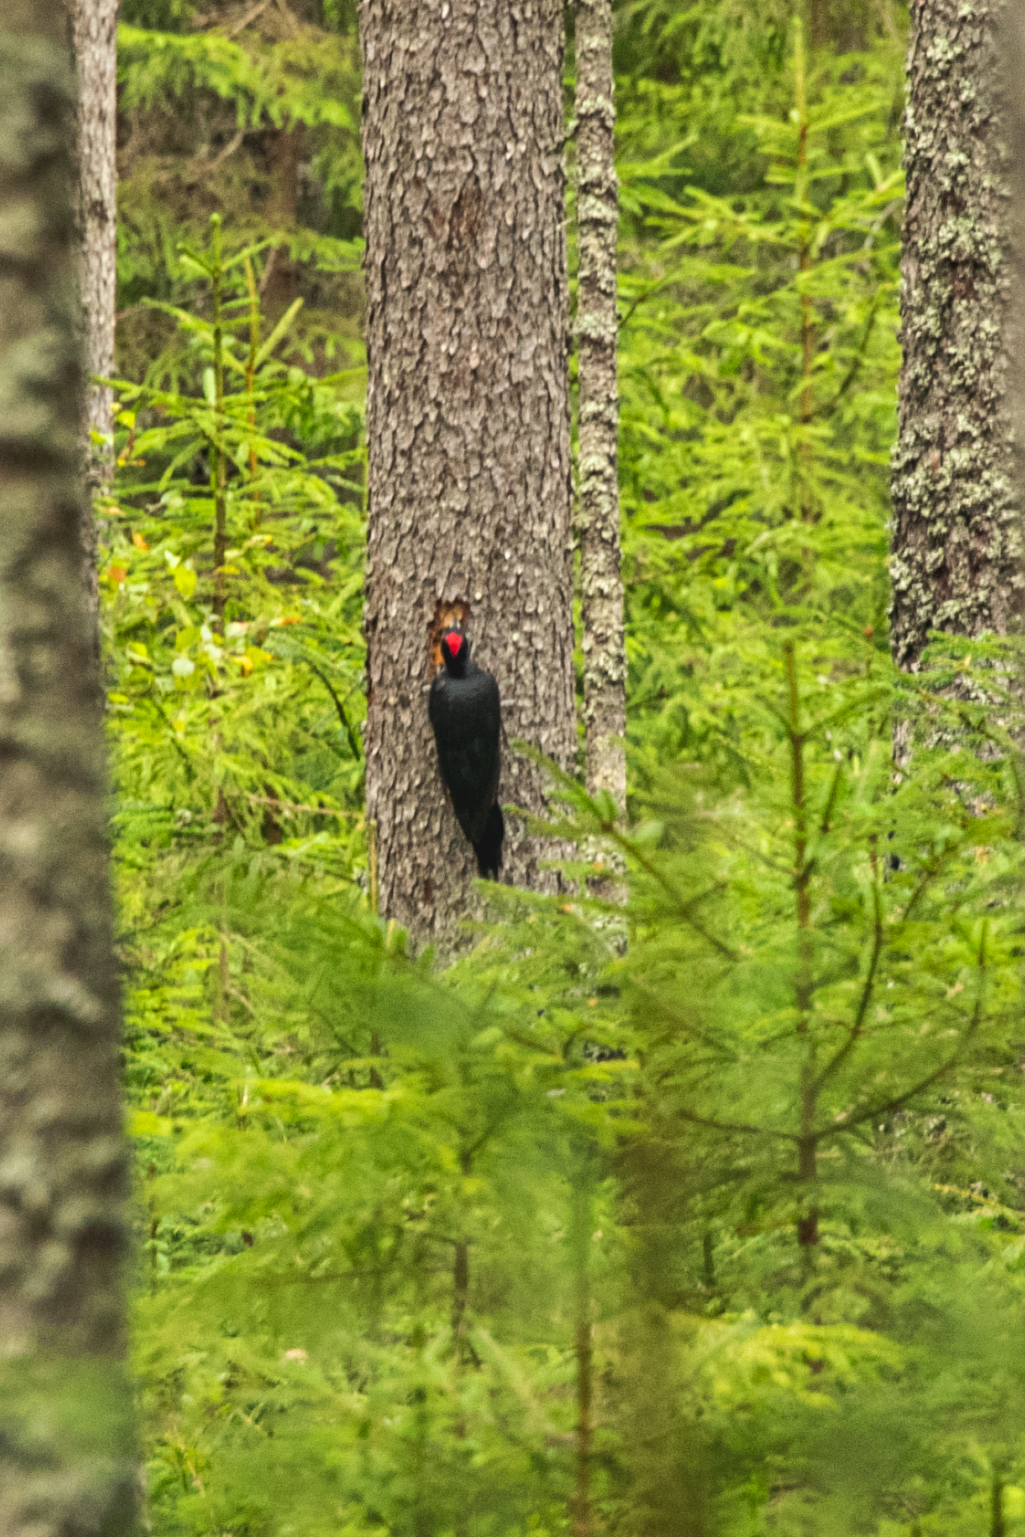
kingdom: Animalia
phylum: Chordata
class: Aves
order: Piciformes
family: Picidae
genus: Dryocopus
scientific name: Dryocopus martius
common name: Black woodpecker
